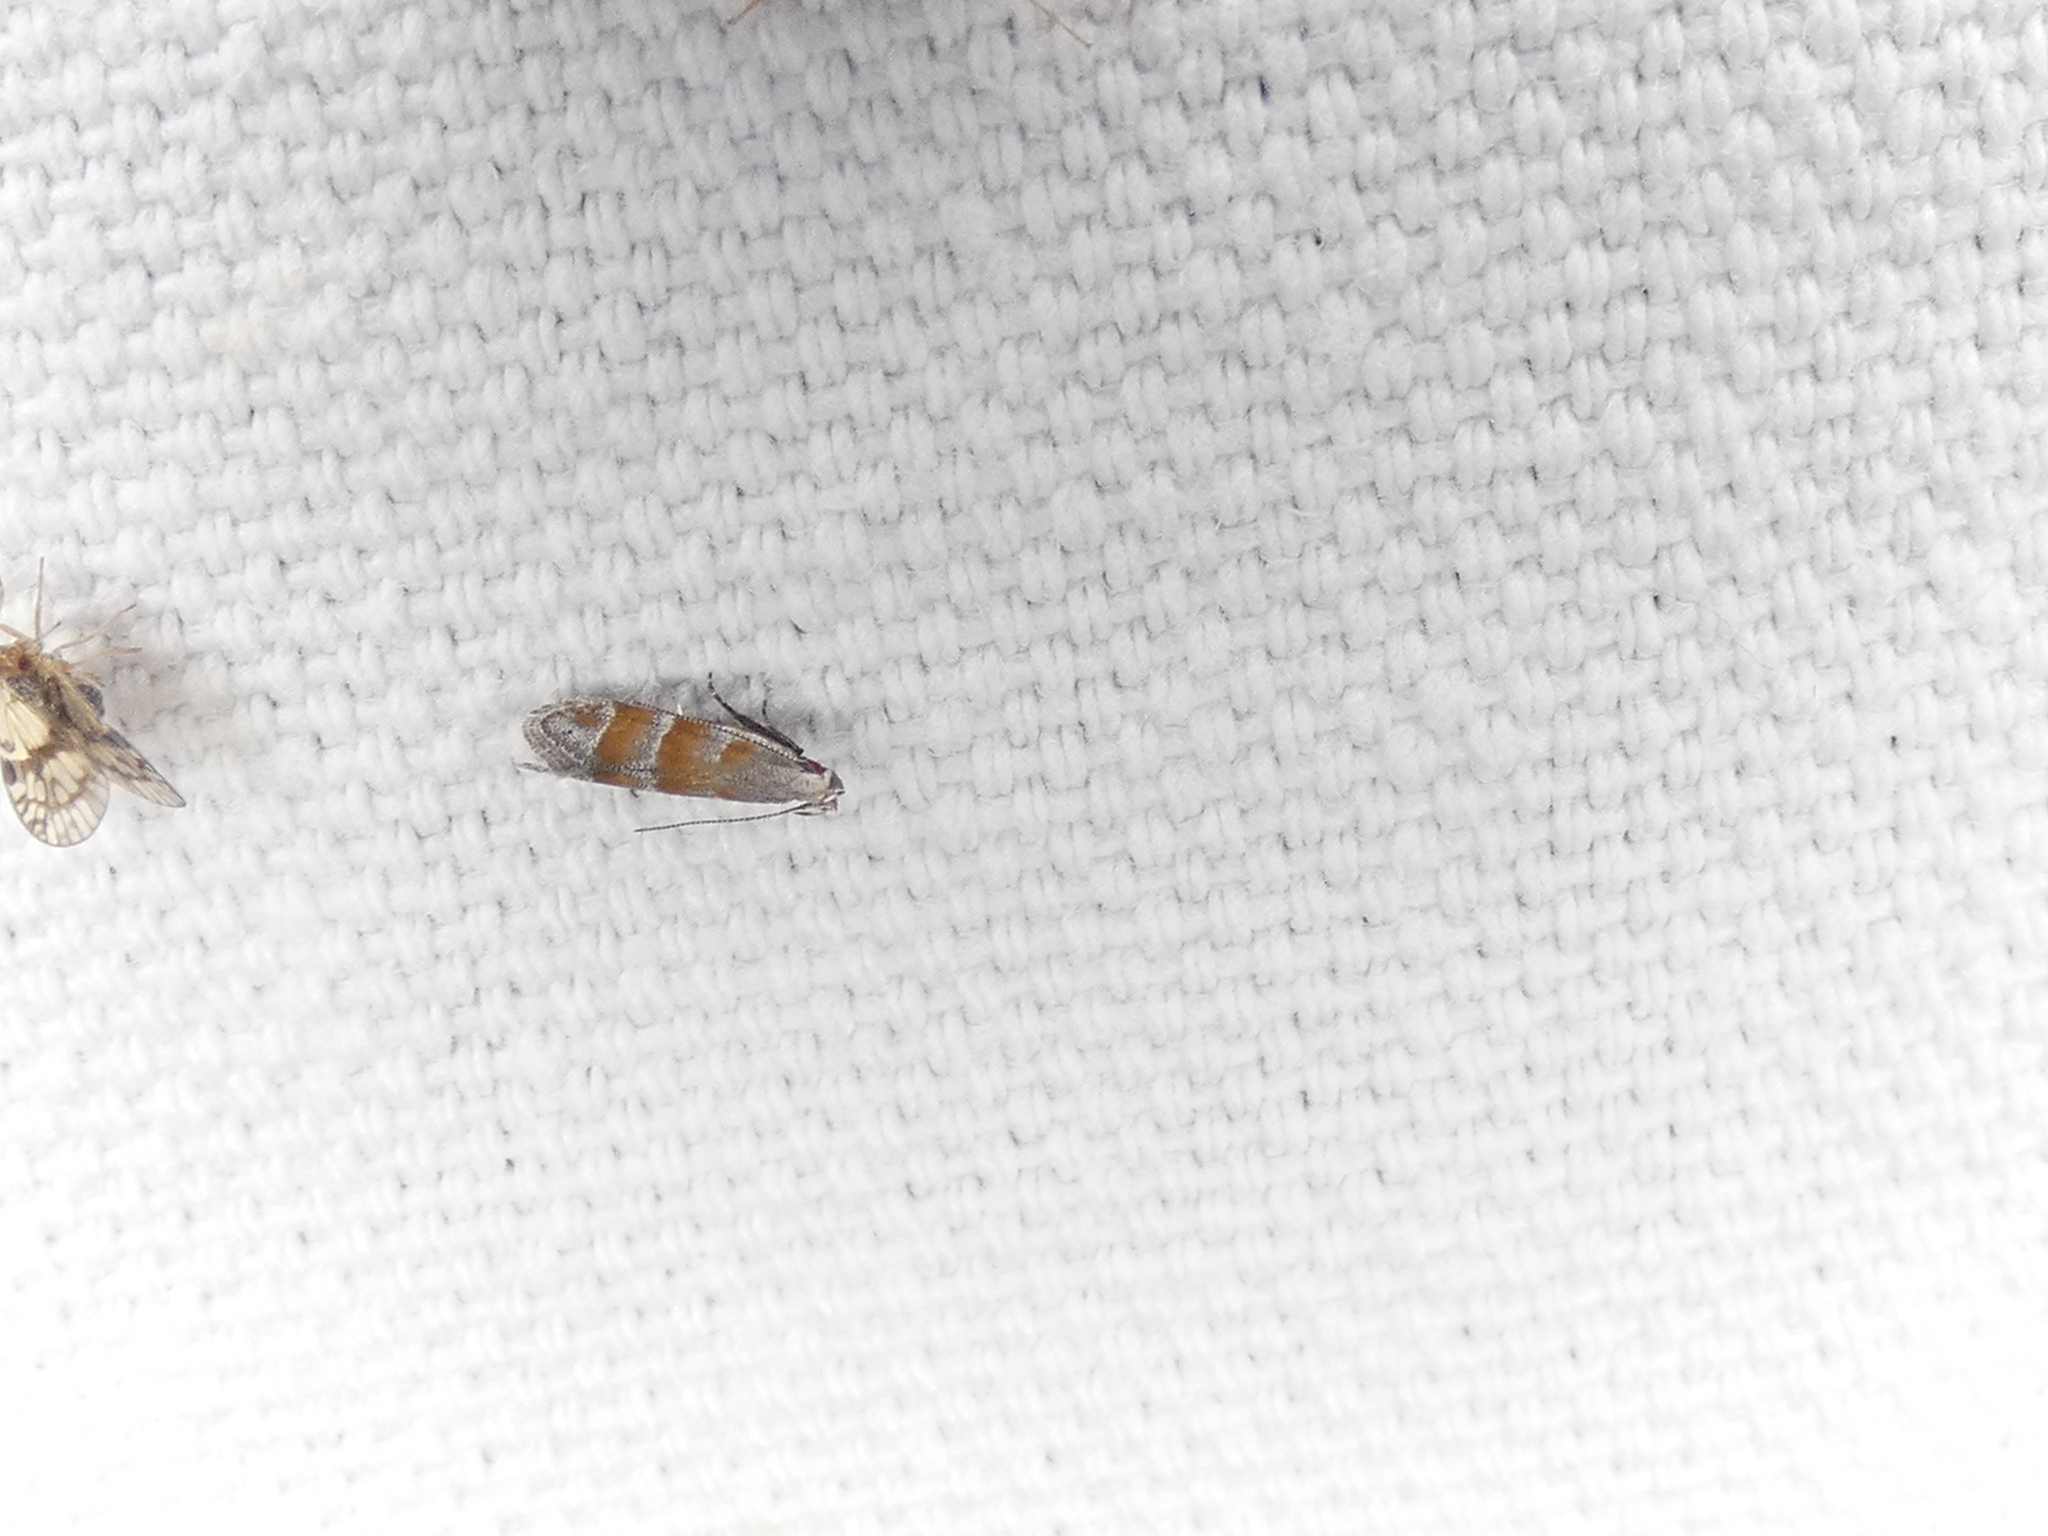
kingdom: Animalia
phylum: Arthropoda
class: Insecta
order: Lepidoptera
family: Gelechiidae
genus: Battaristis
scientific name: Battaristis vittella
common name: Orange stripe-backed moth
